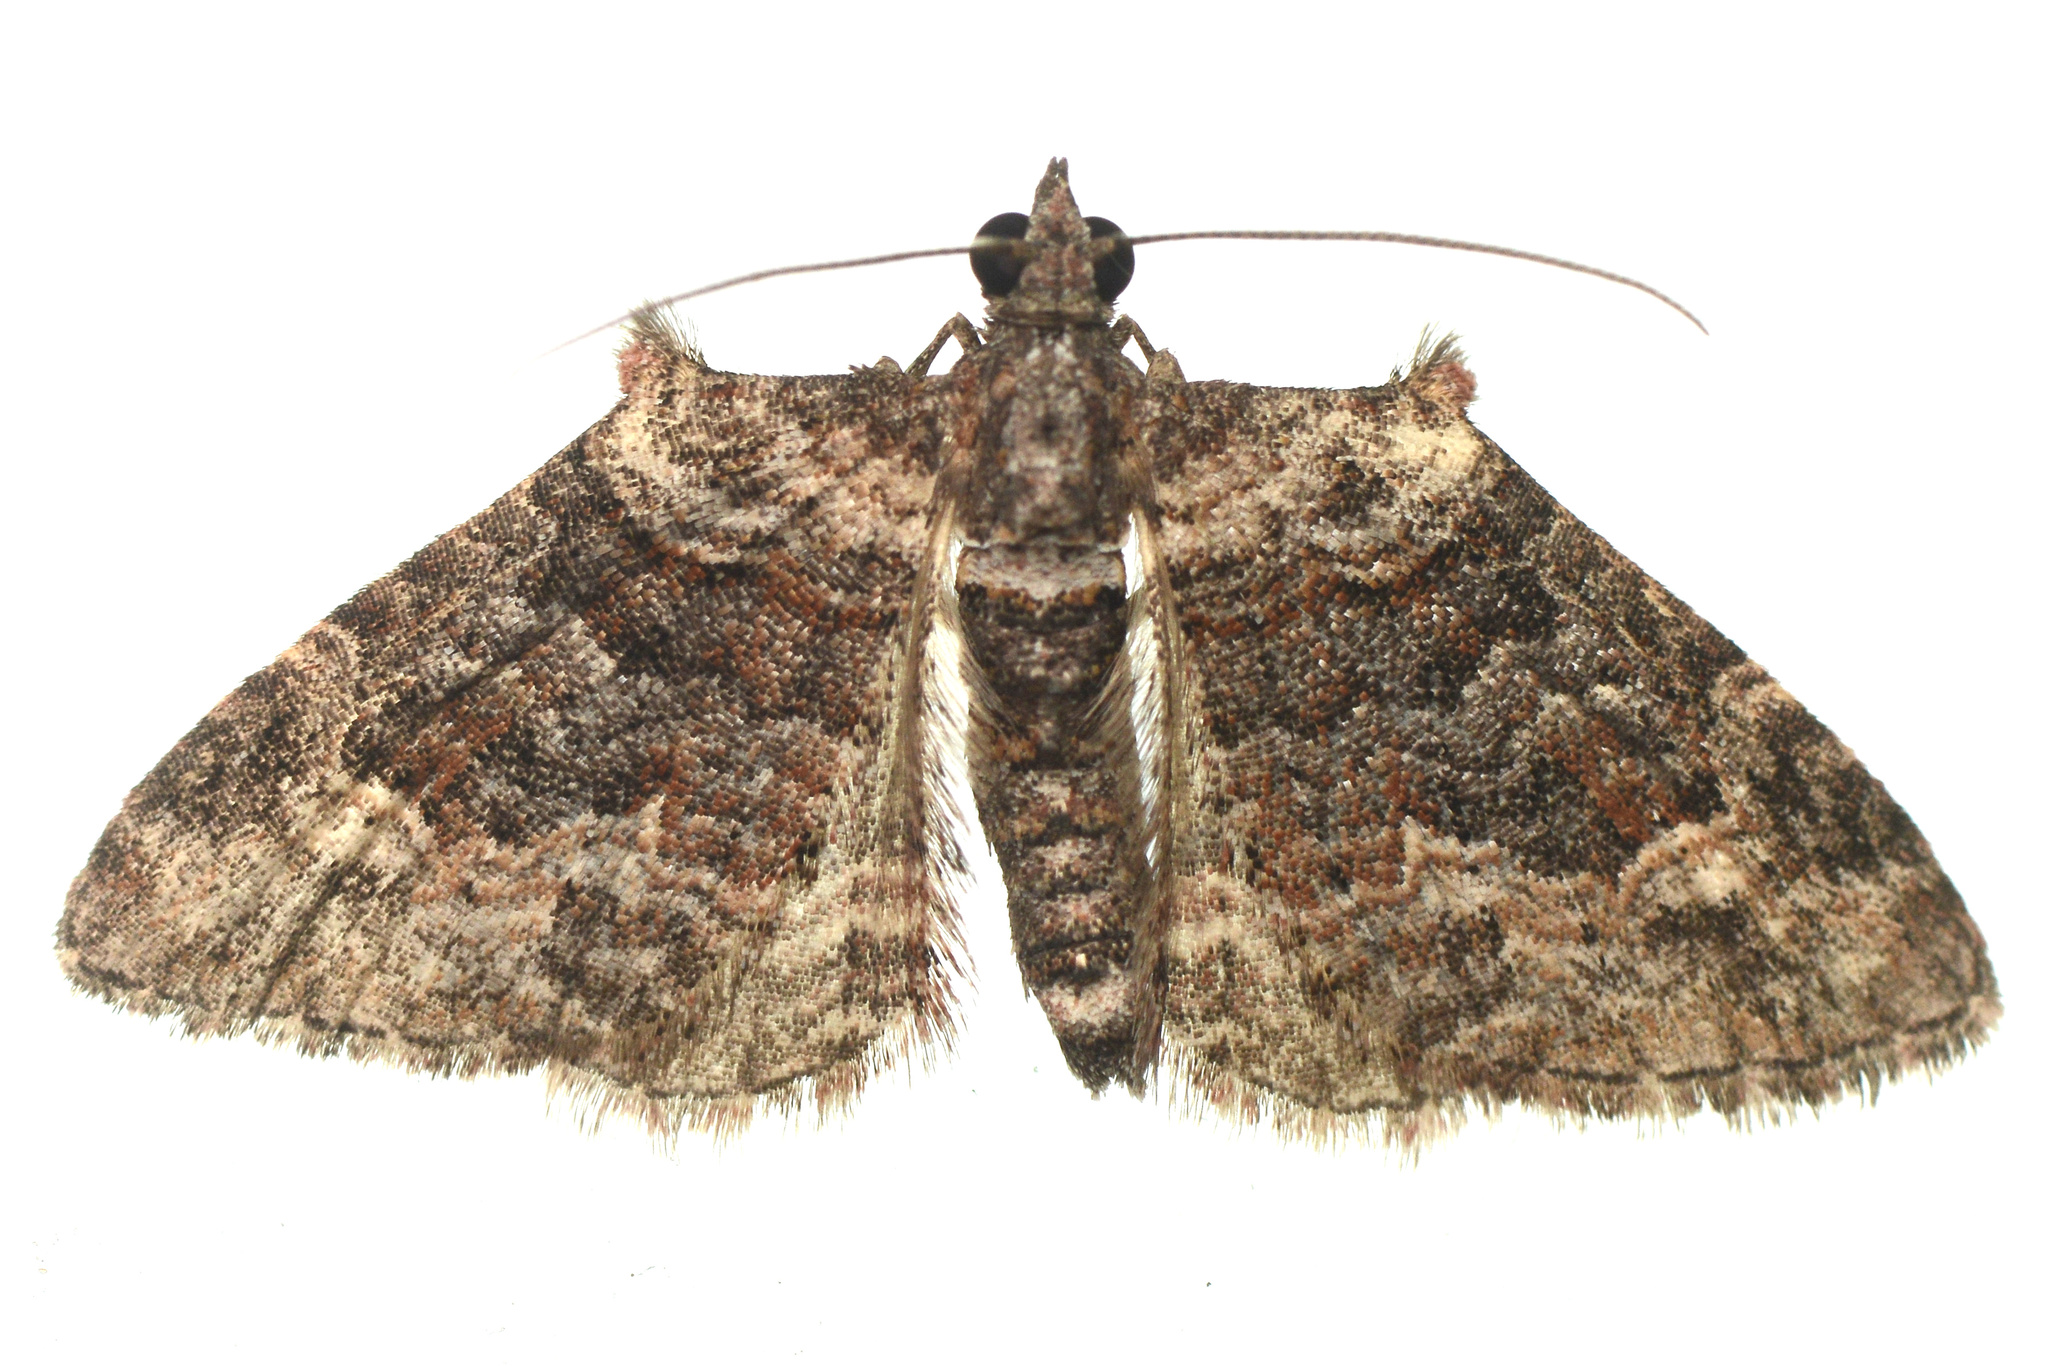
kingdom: Animalia
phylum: Arthropoda
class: Insecta
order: Lepidoptera
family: Geometridae
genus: Phrissogonus
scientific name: Phrissogonus laticostata
